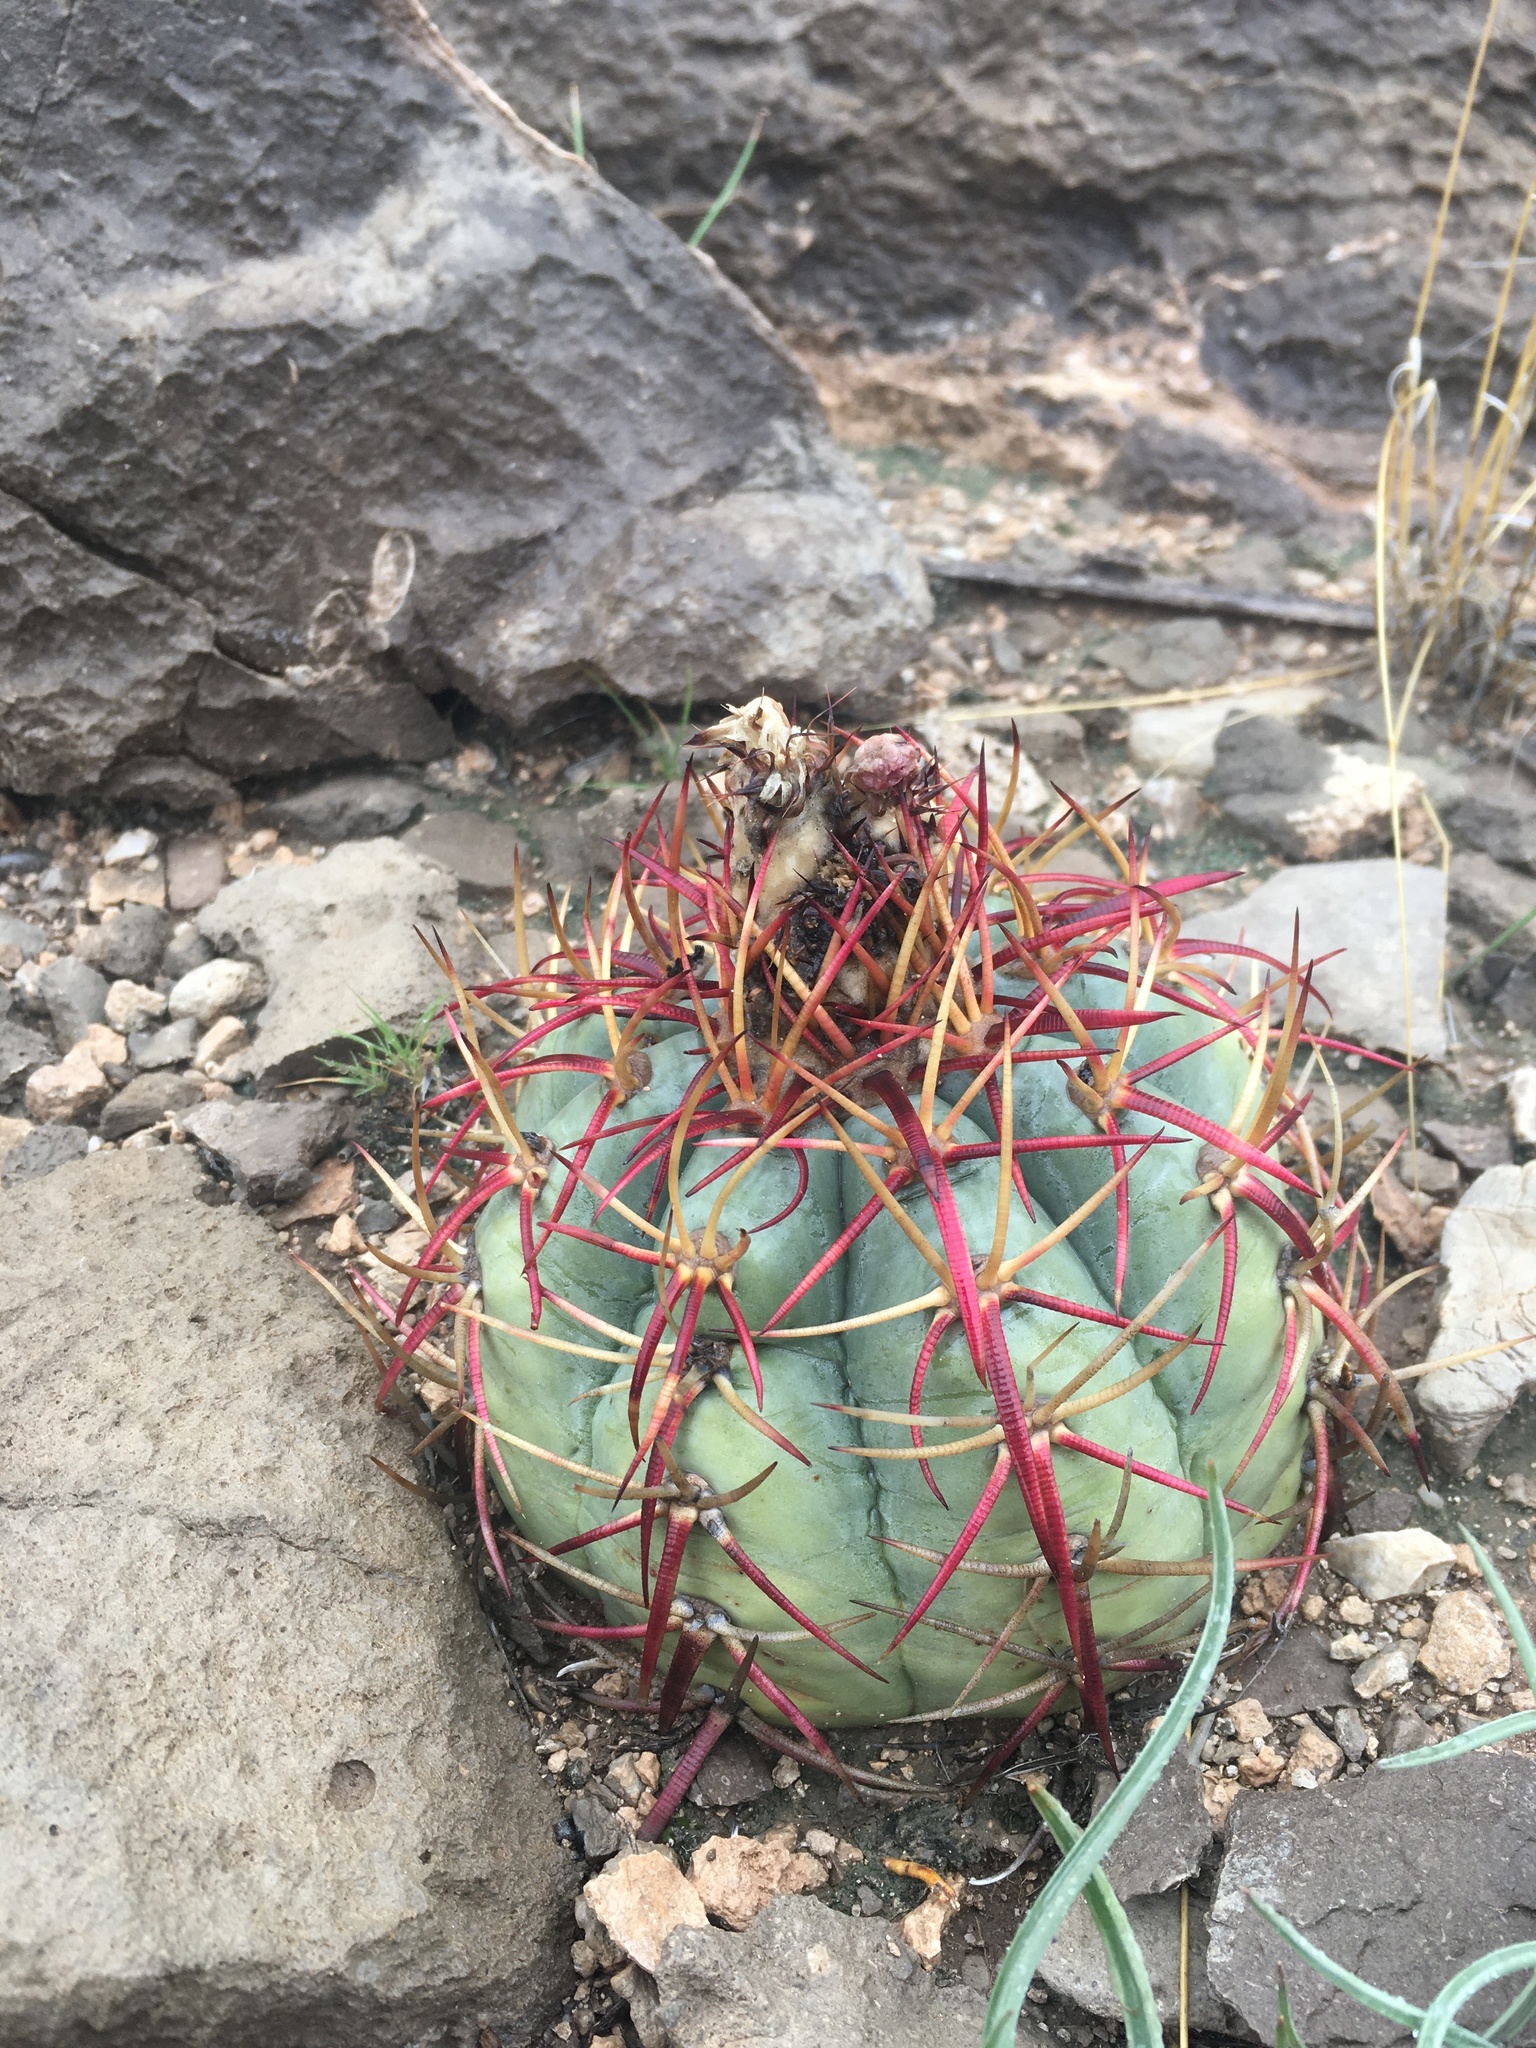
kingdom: Plantae
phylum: Tracheophyta
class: Magnoliopsida
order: Caryophyllales
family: Cactaceae
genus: Echinocactus
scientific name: Echinocactus horizonthalonius
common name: Devilshead
